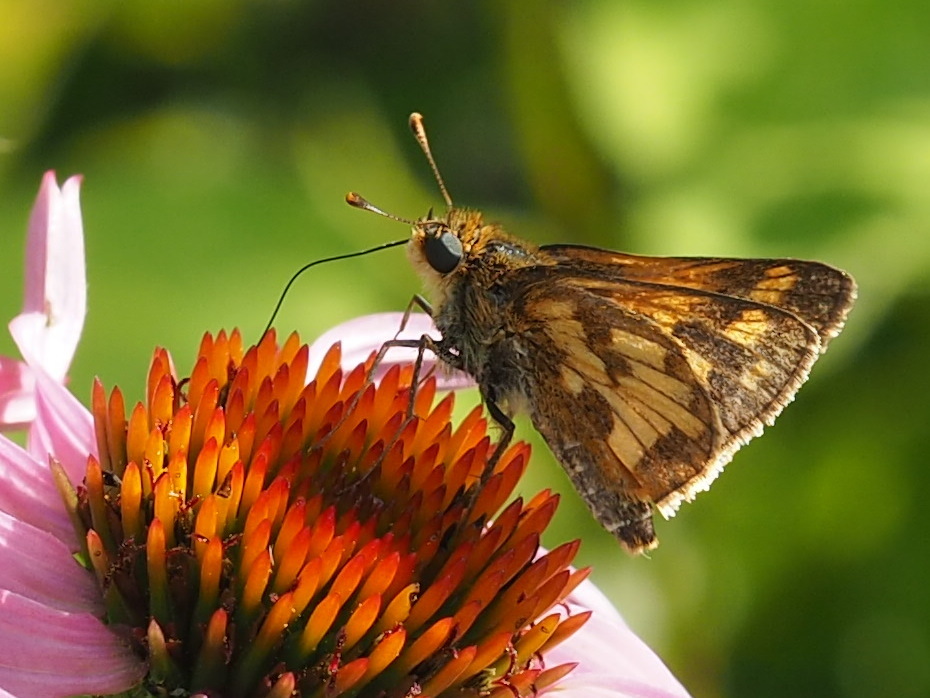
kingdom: Animalia
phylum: Arthropoda
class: Insecta
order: Lepidoptera
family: Hesperiidae
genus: Polites
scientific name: Polites coras
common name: Peck's skipper
